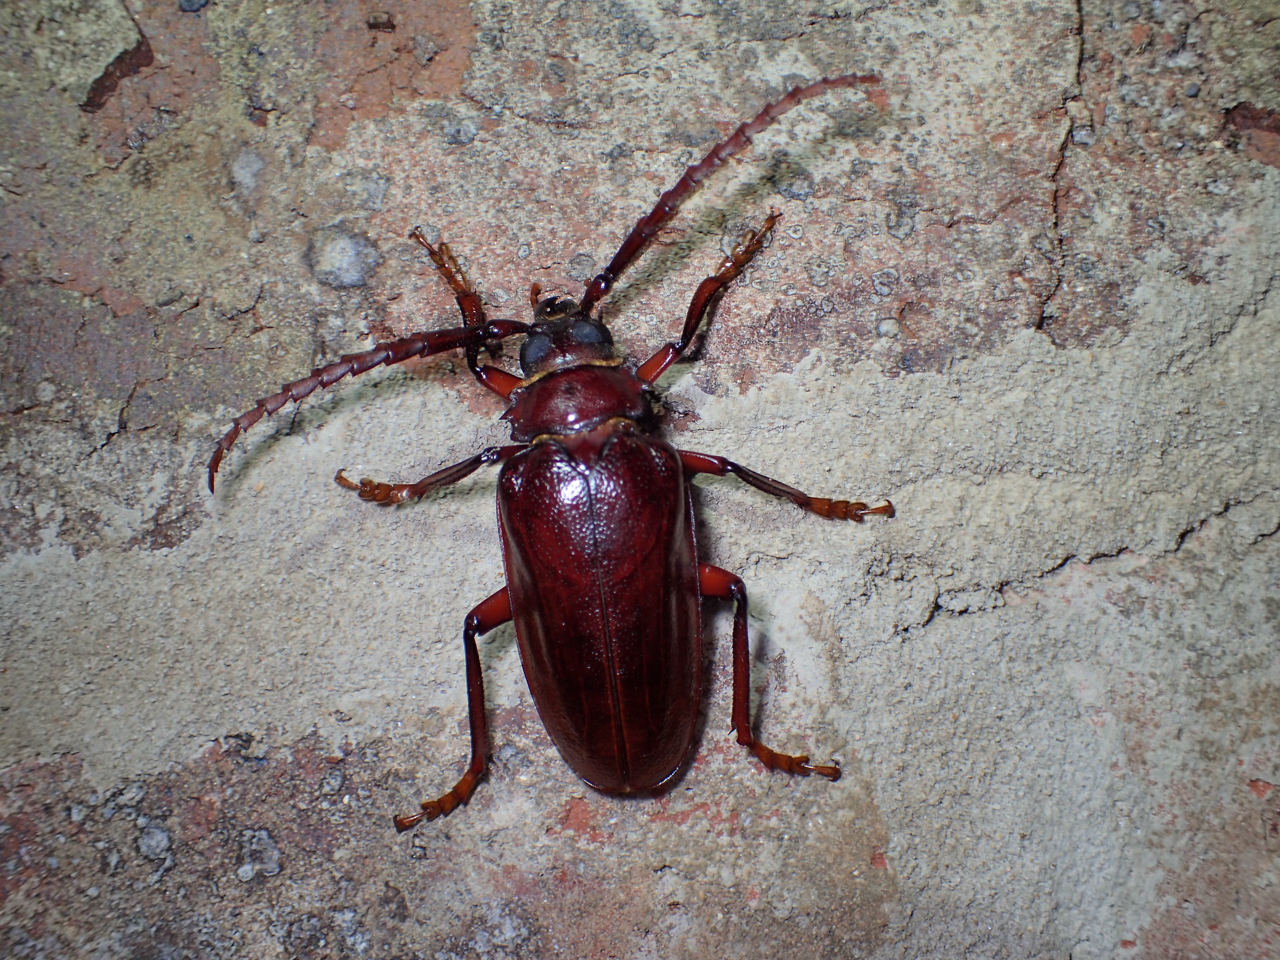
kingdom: Animalia
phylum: Arthropoda
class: Insecta
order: Coleoptera
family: Cerambycidae
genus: Prionus
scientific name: Prionus pocularis
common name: Tooth-necked longhorn beetle
